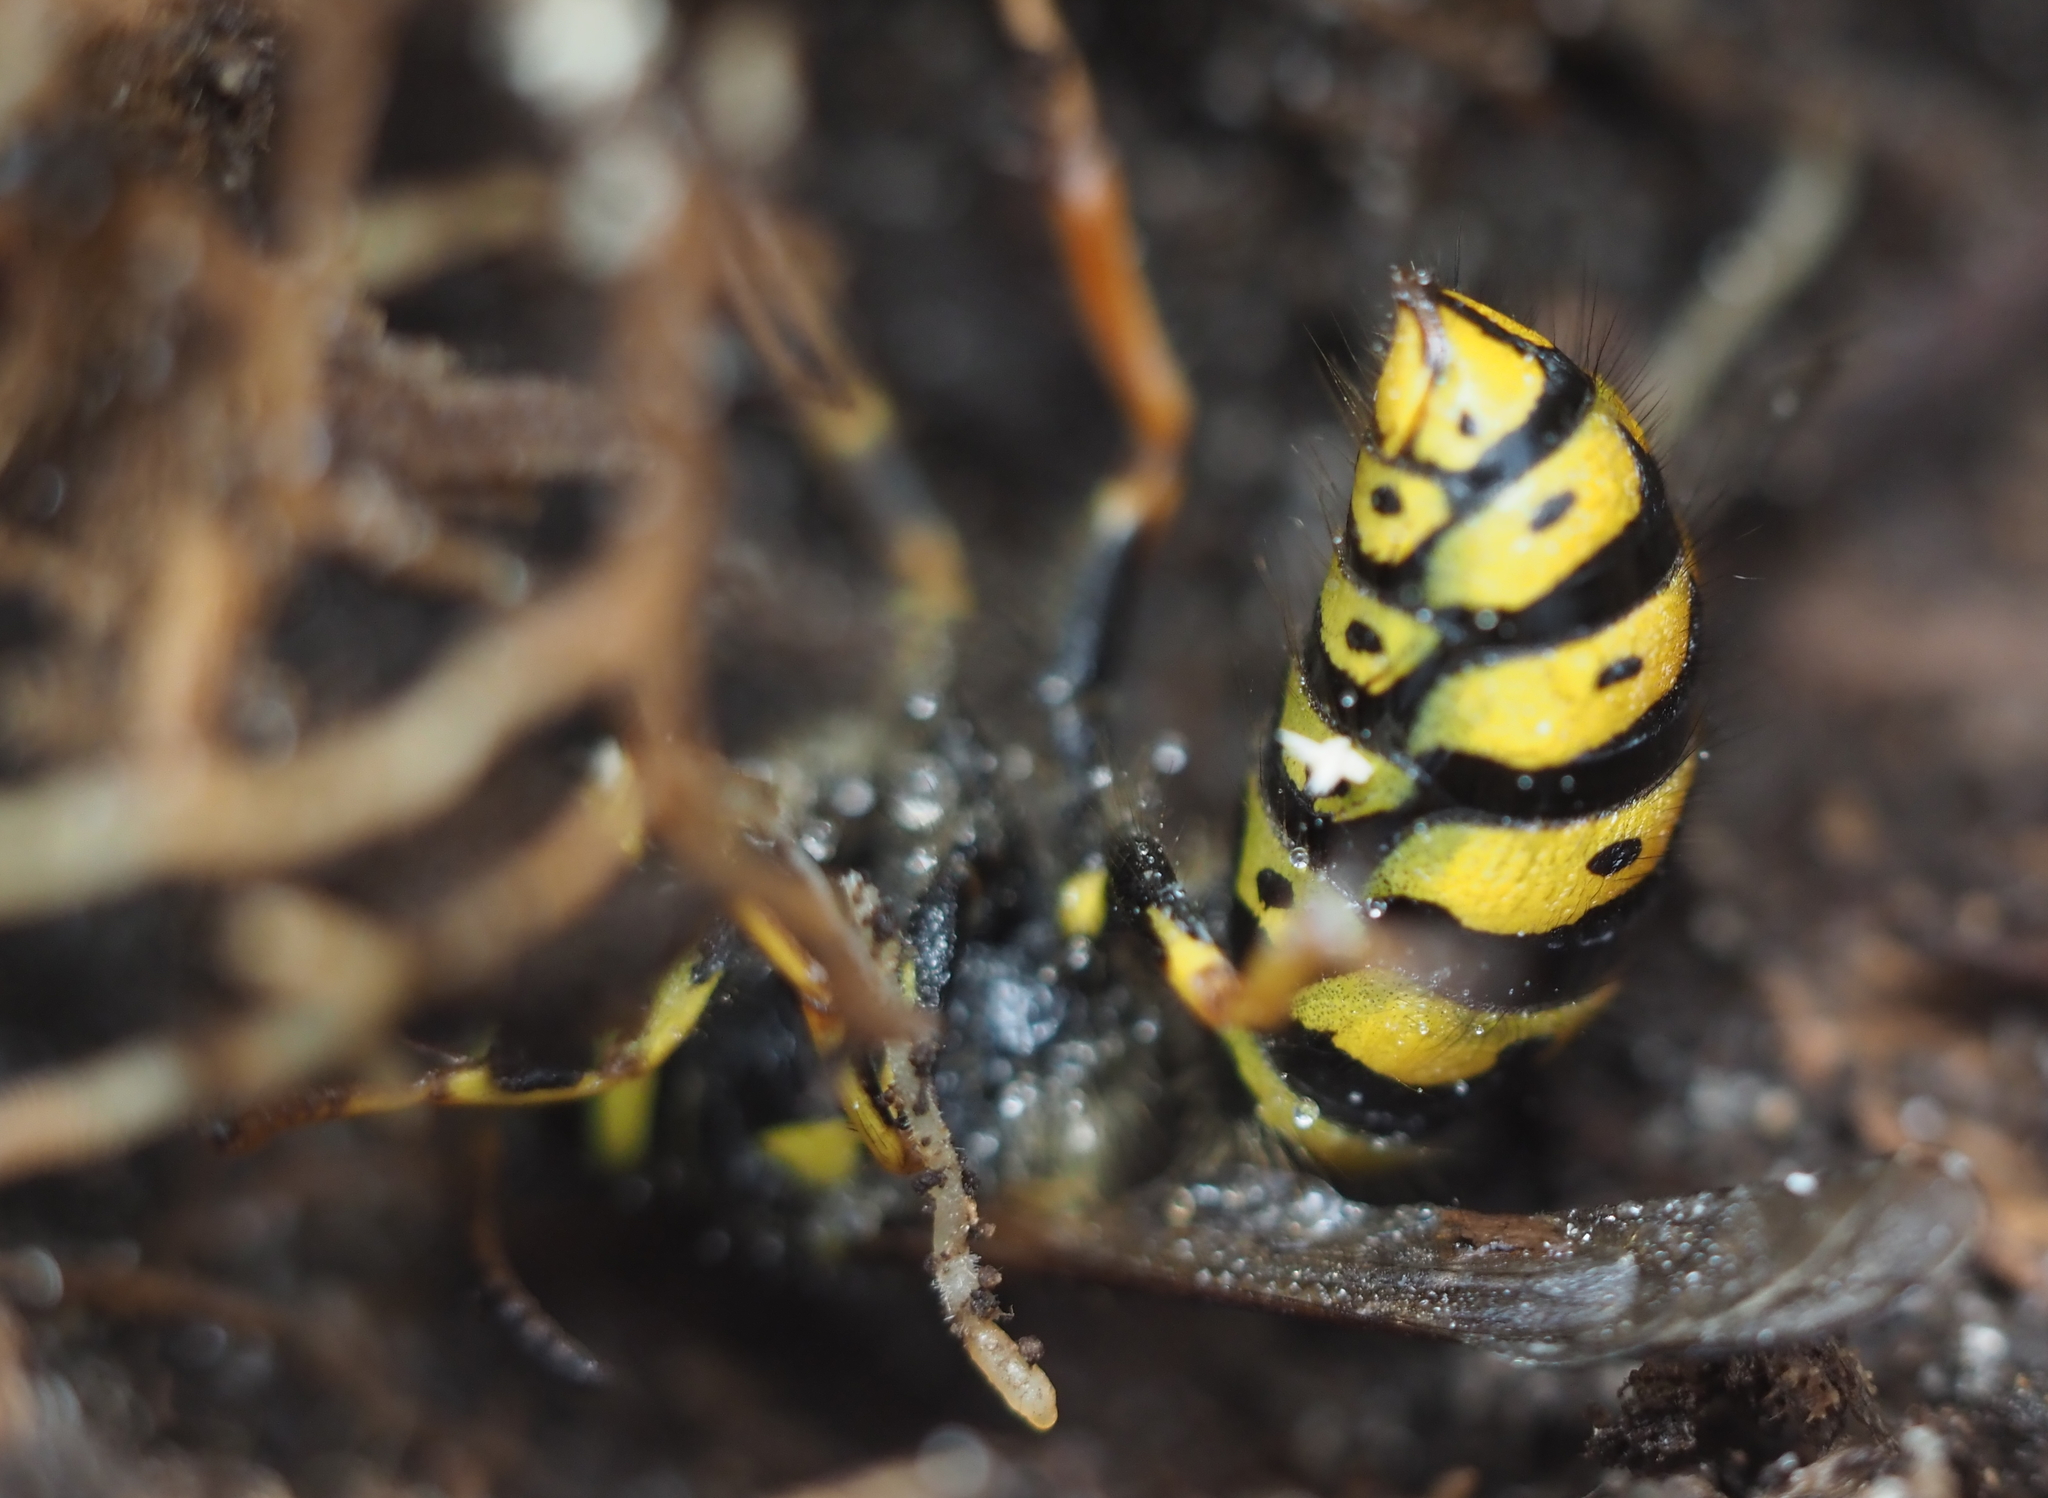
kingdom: Animalia
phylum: Arthropoda
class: Insecta
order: Hymenoptera
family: Vespidae
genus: Dolichovespula
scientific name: Dolichovespula arenaria
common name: Aerial yellowjacket
